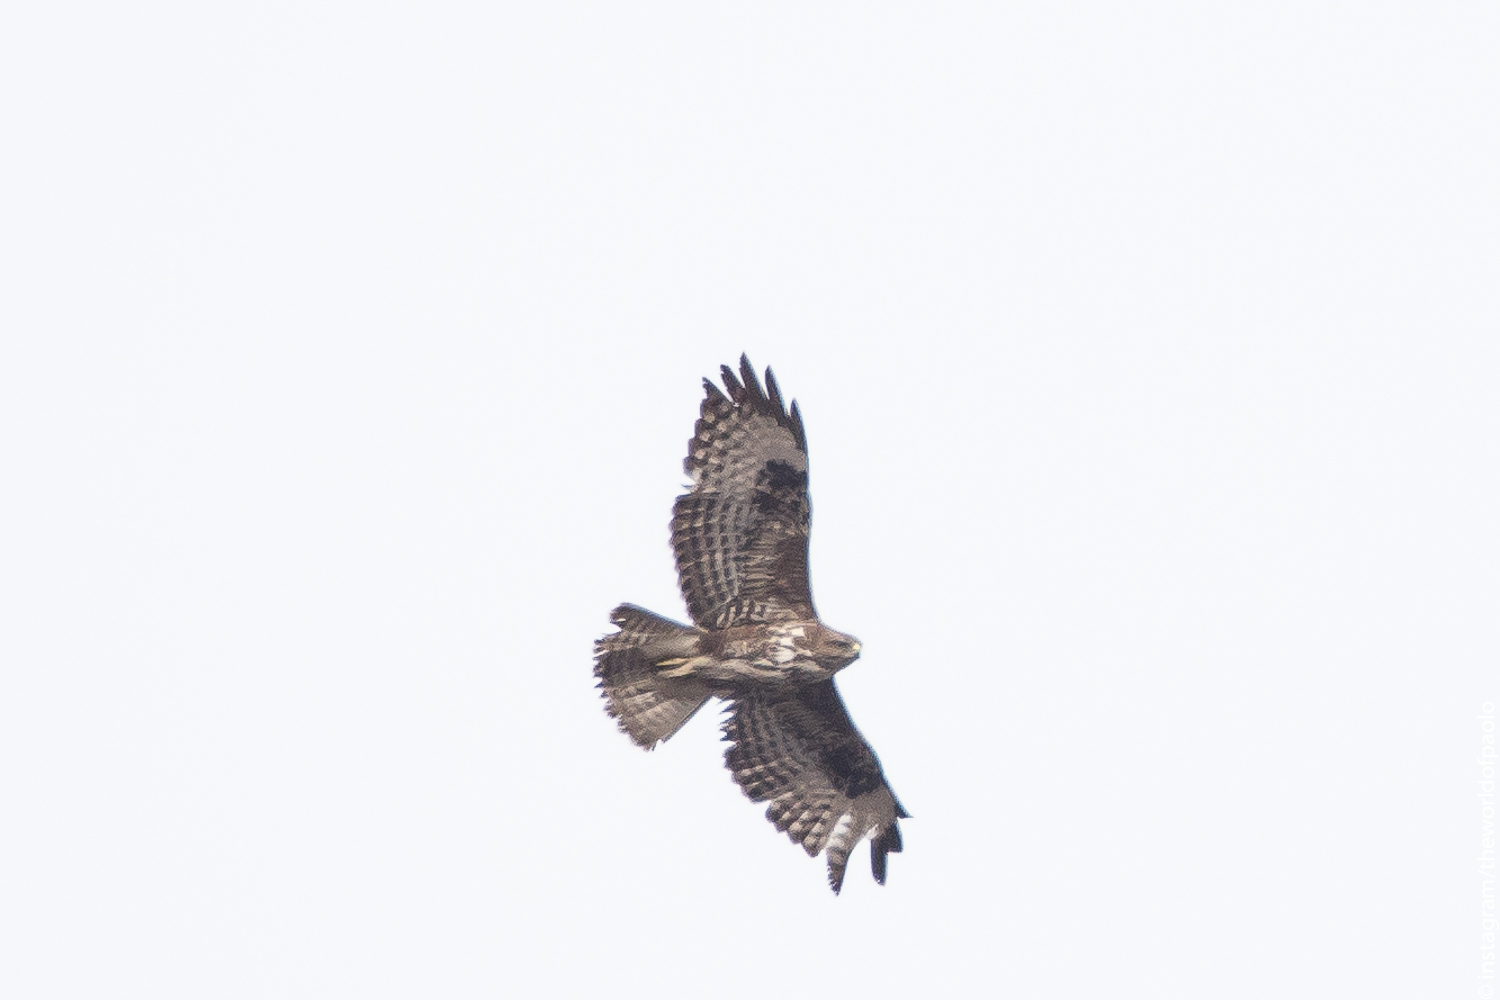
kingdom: Animalia
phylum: Chordata
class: Aves
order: Accipitriformes
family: Accipitridae
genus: Buteo
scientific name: Buteo buteo
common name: Common buzzard
